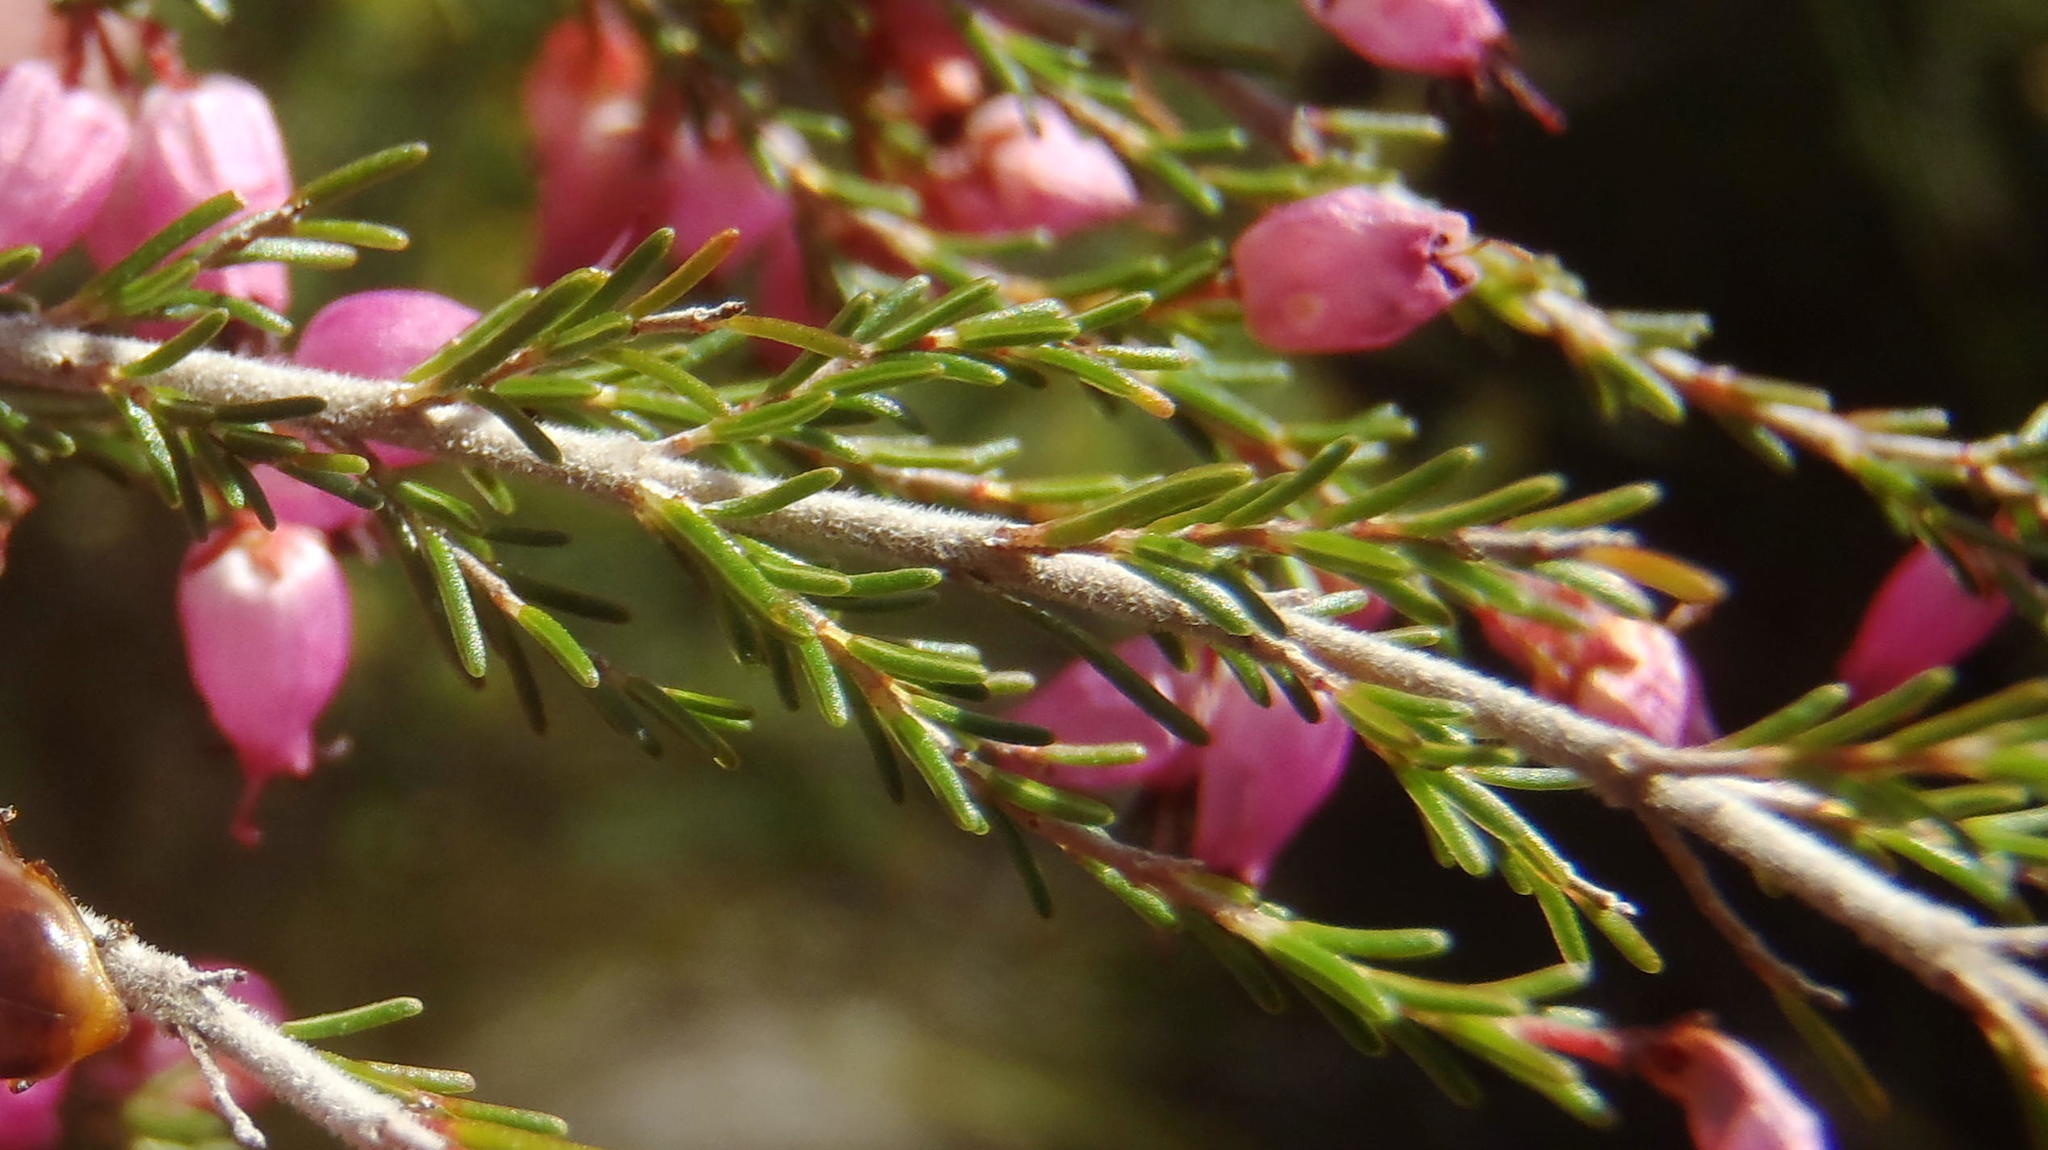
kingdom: Plantae
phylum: Tracheophyta
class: Magnoliopsida
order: Ericales
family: Ericaceae
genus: Erica
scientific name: Erica nutans
